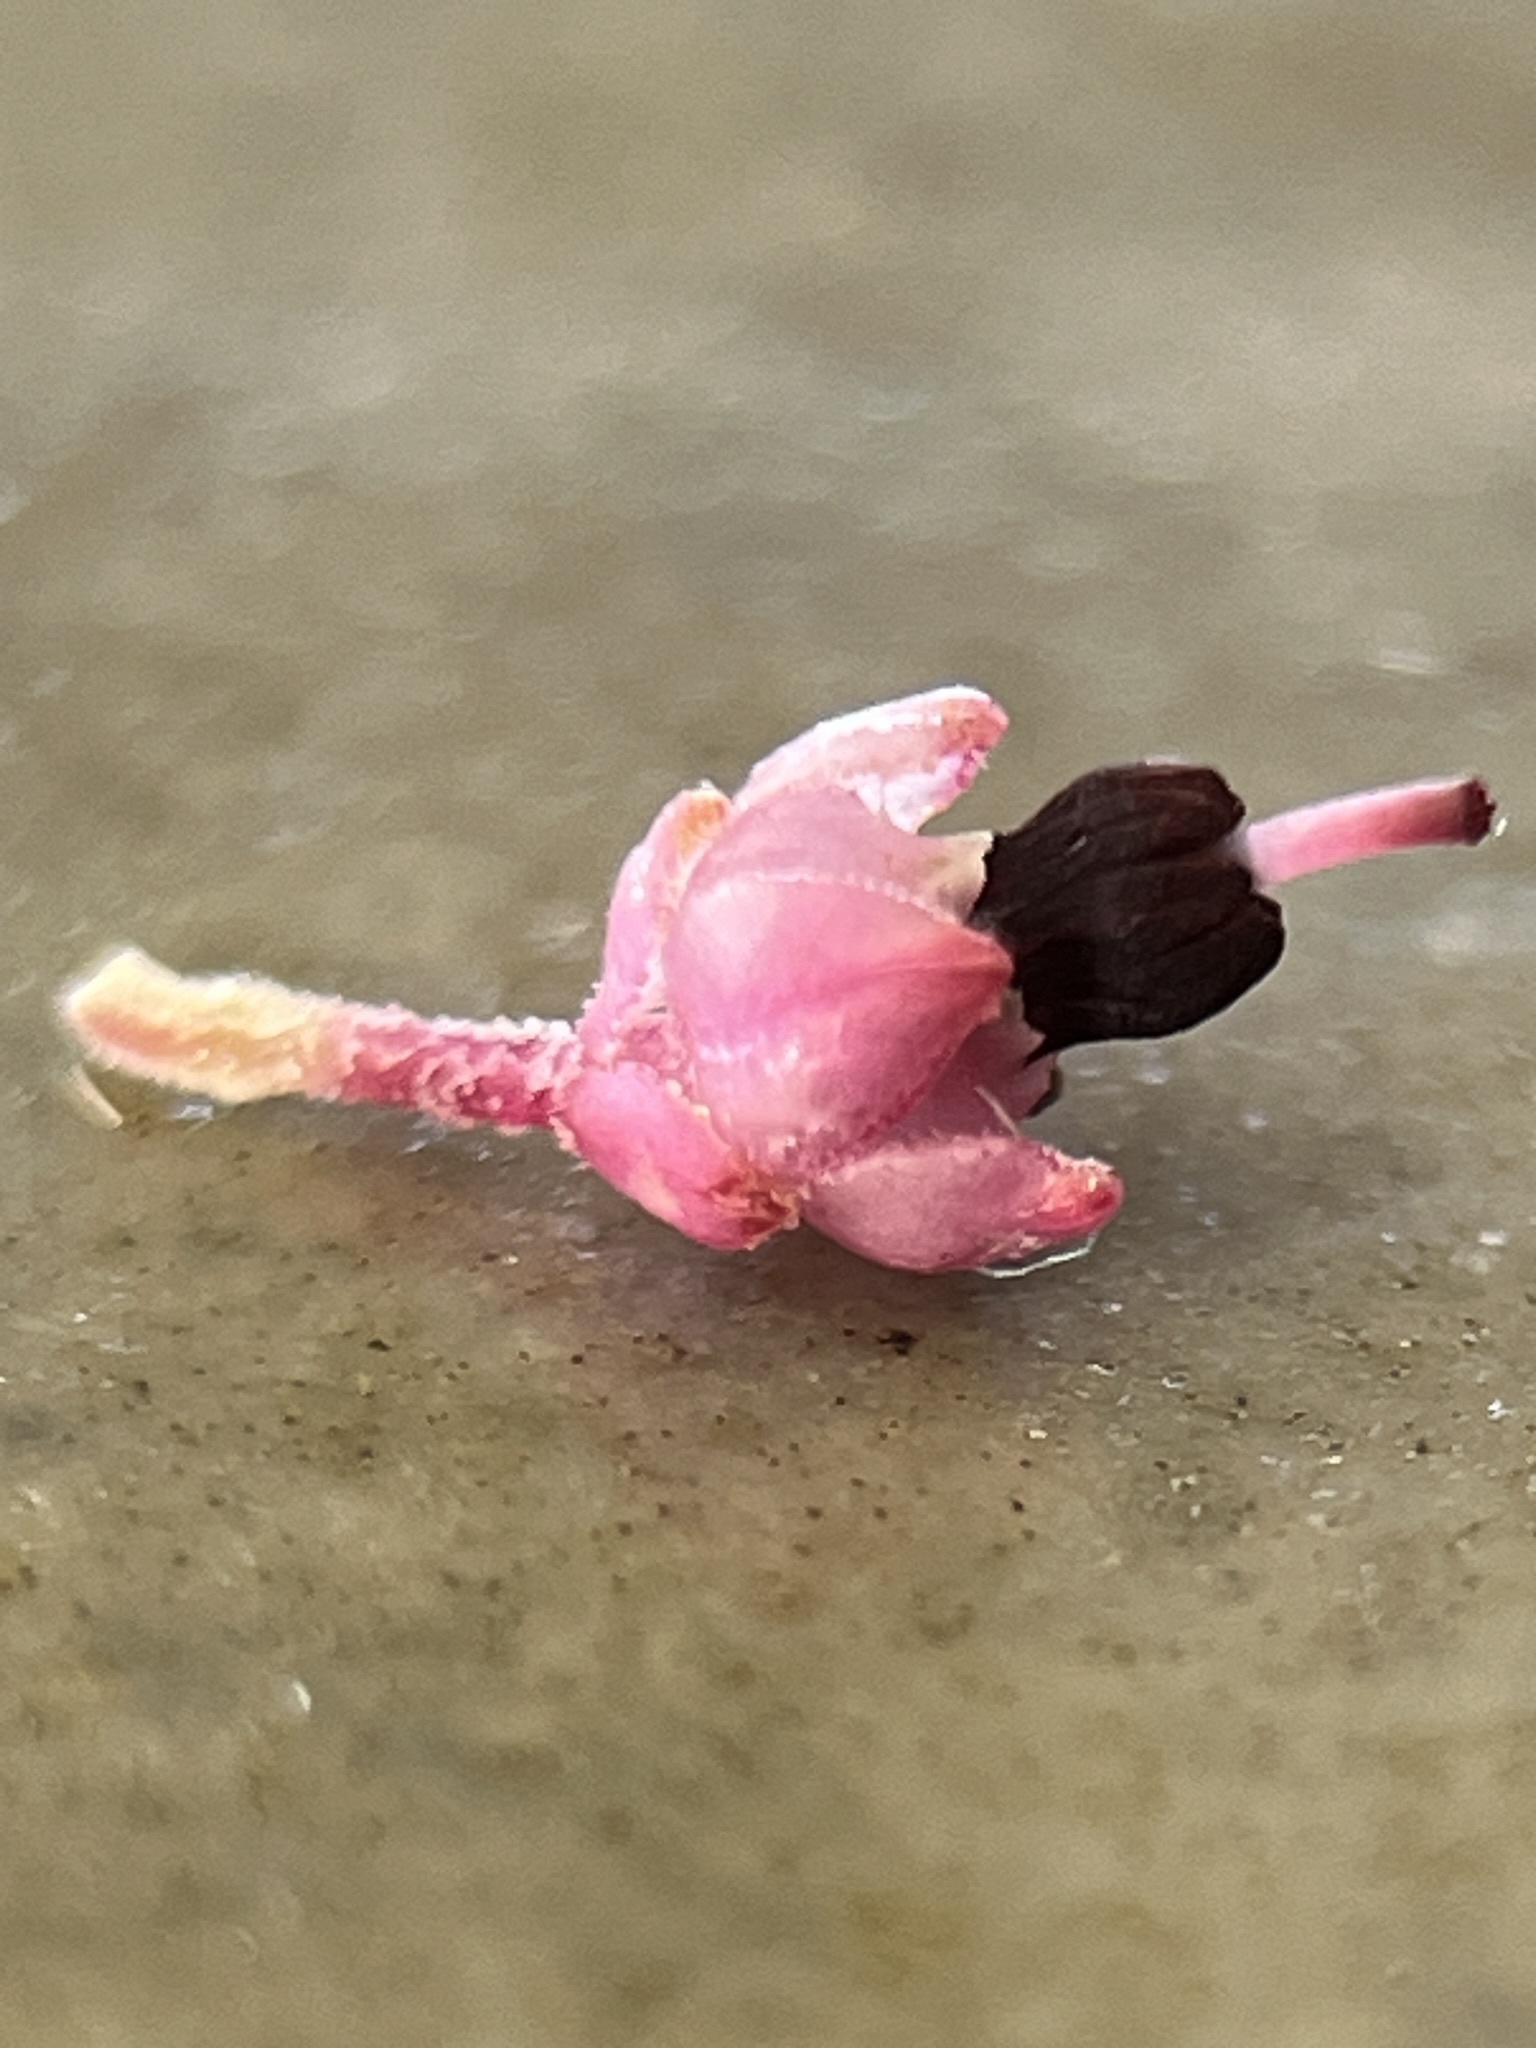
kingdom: Plantae
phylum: Tracheophyta
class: Magnoliopsida
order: Ericales
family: Ericaceae
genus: Erica
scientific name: Erica placentiflora
